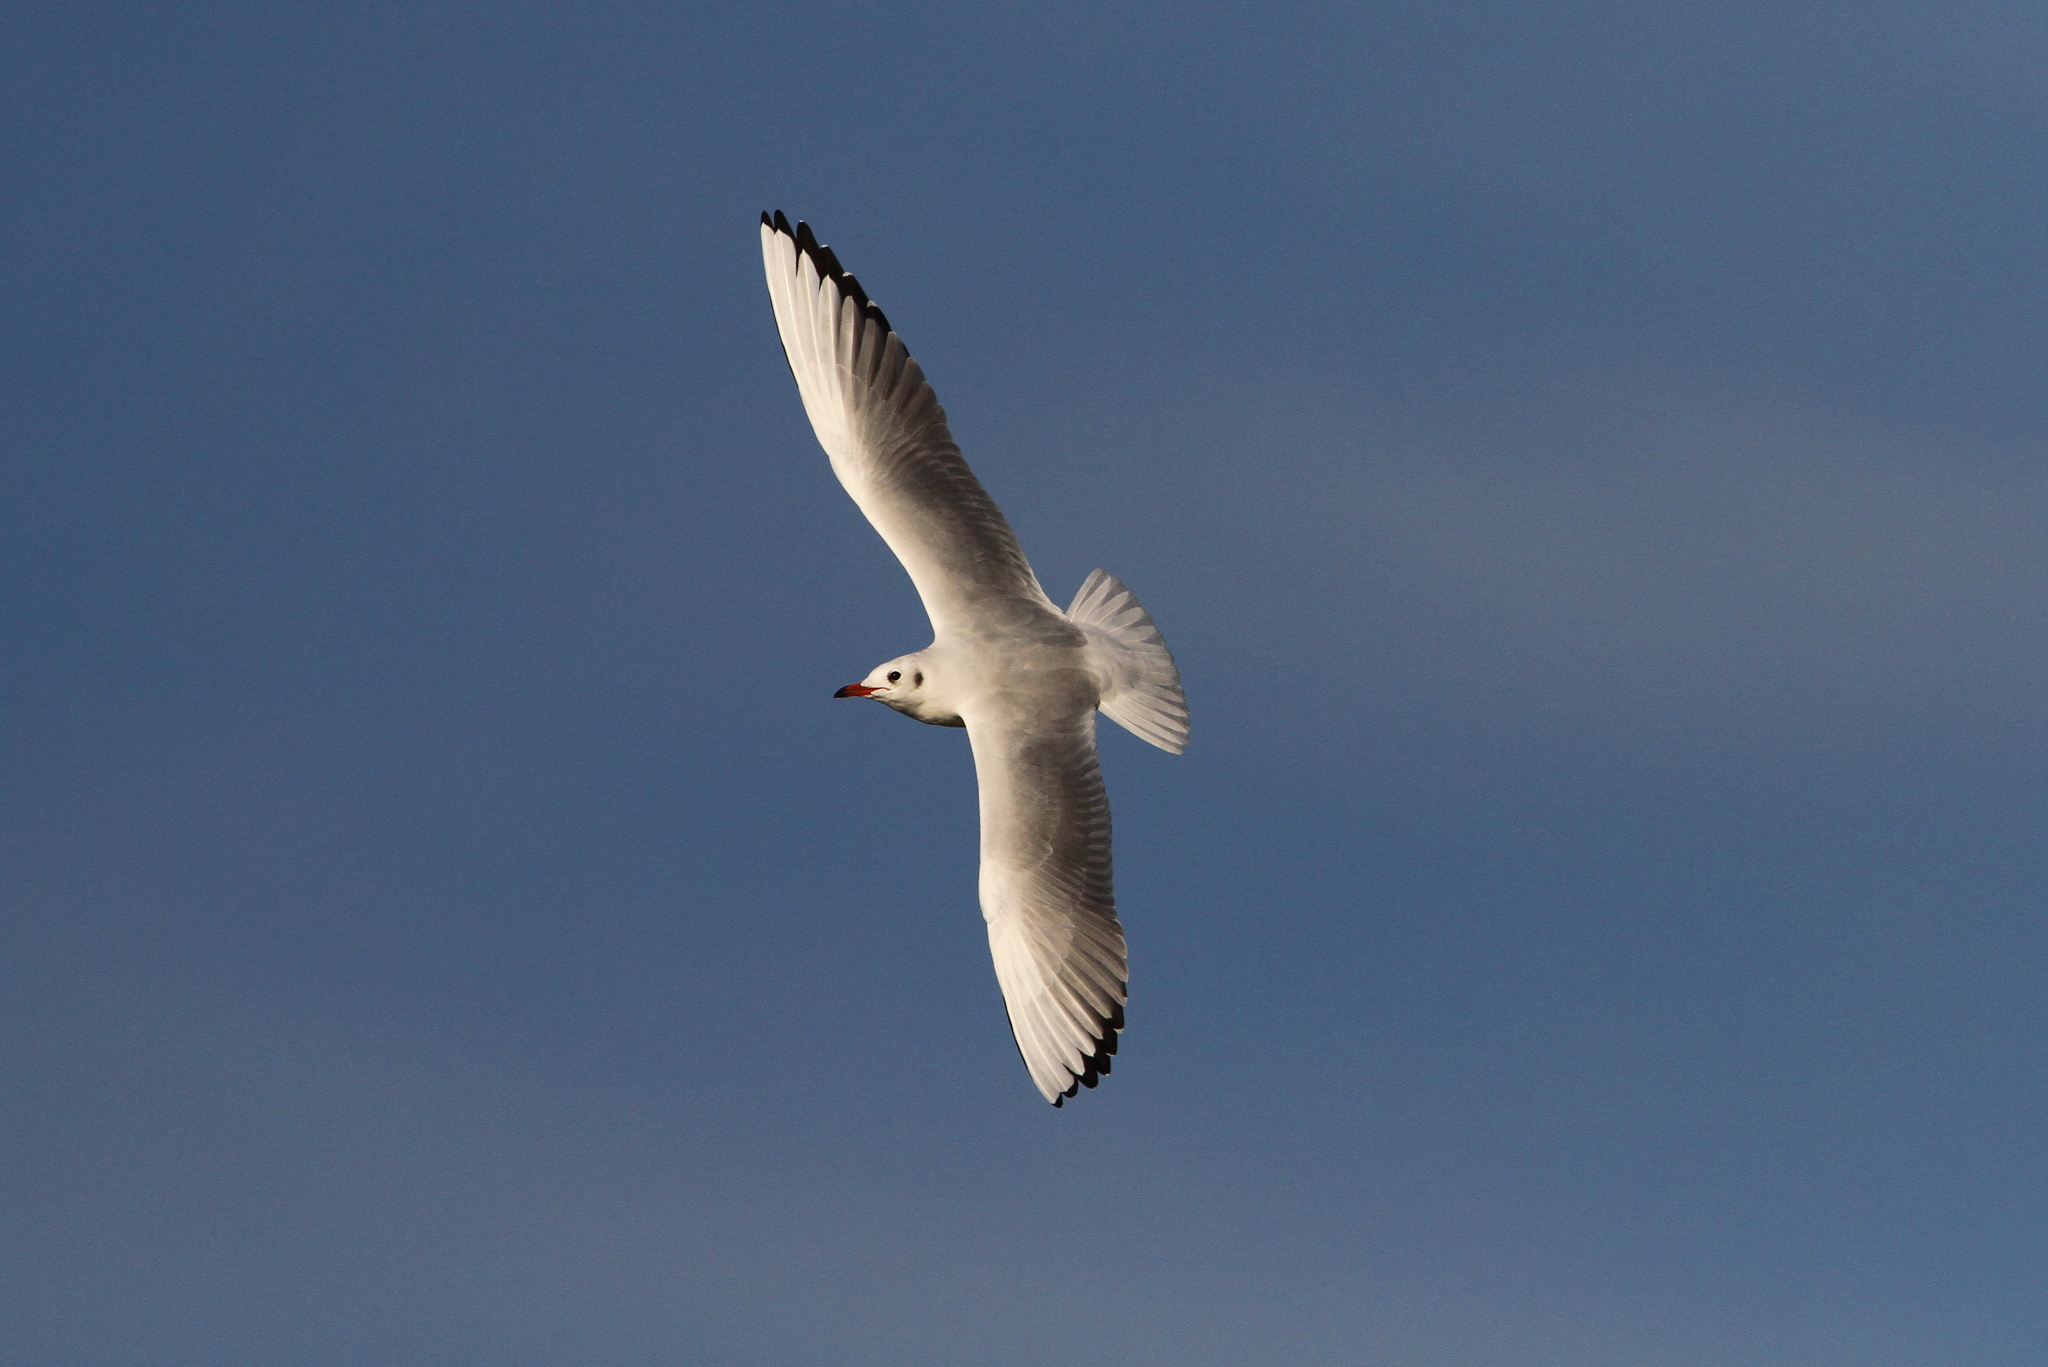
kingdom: Animalia
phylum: Chordata
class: Aves
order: Charadriiformes
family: Laridae
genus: Chroicocephalus
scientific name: Chroicocephalus ridibundus
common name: Black-headed gull
